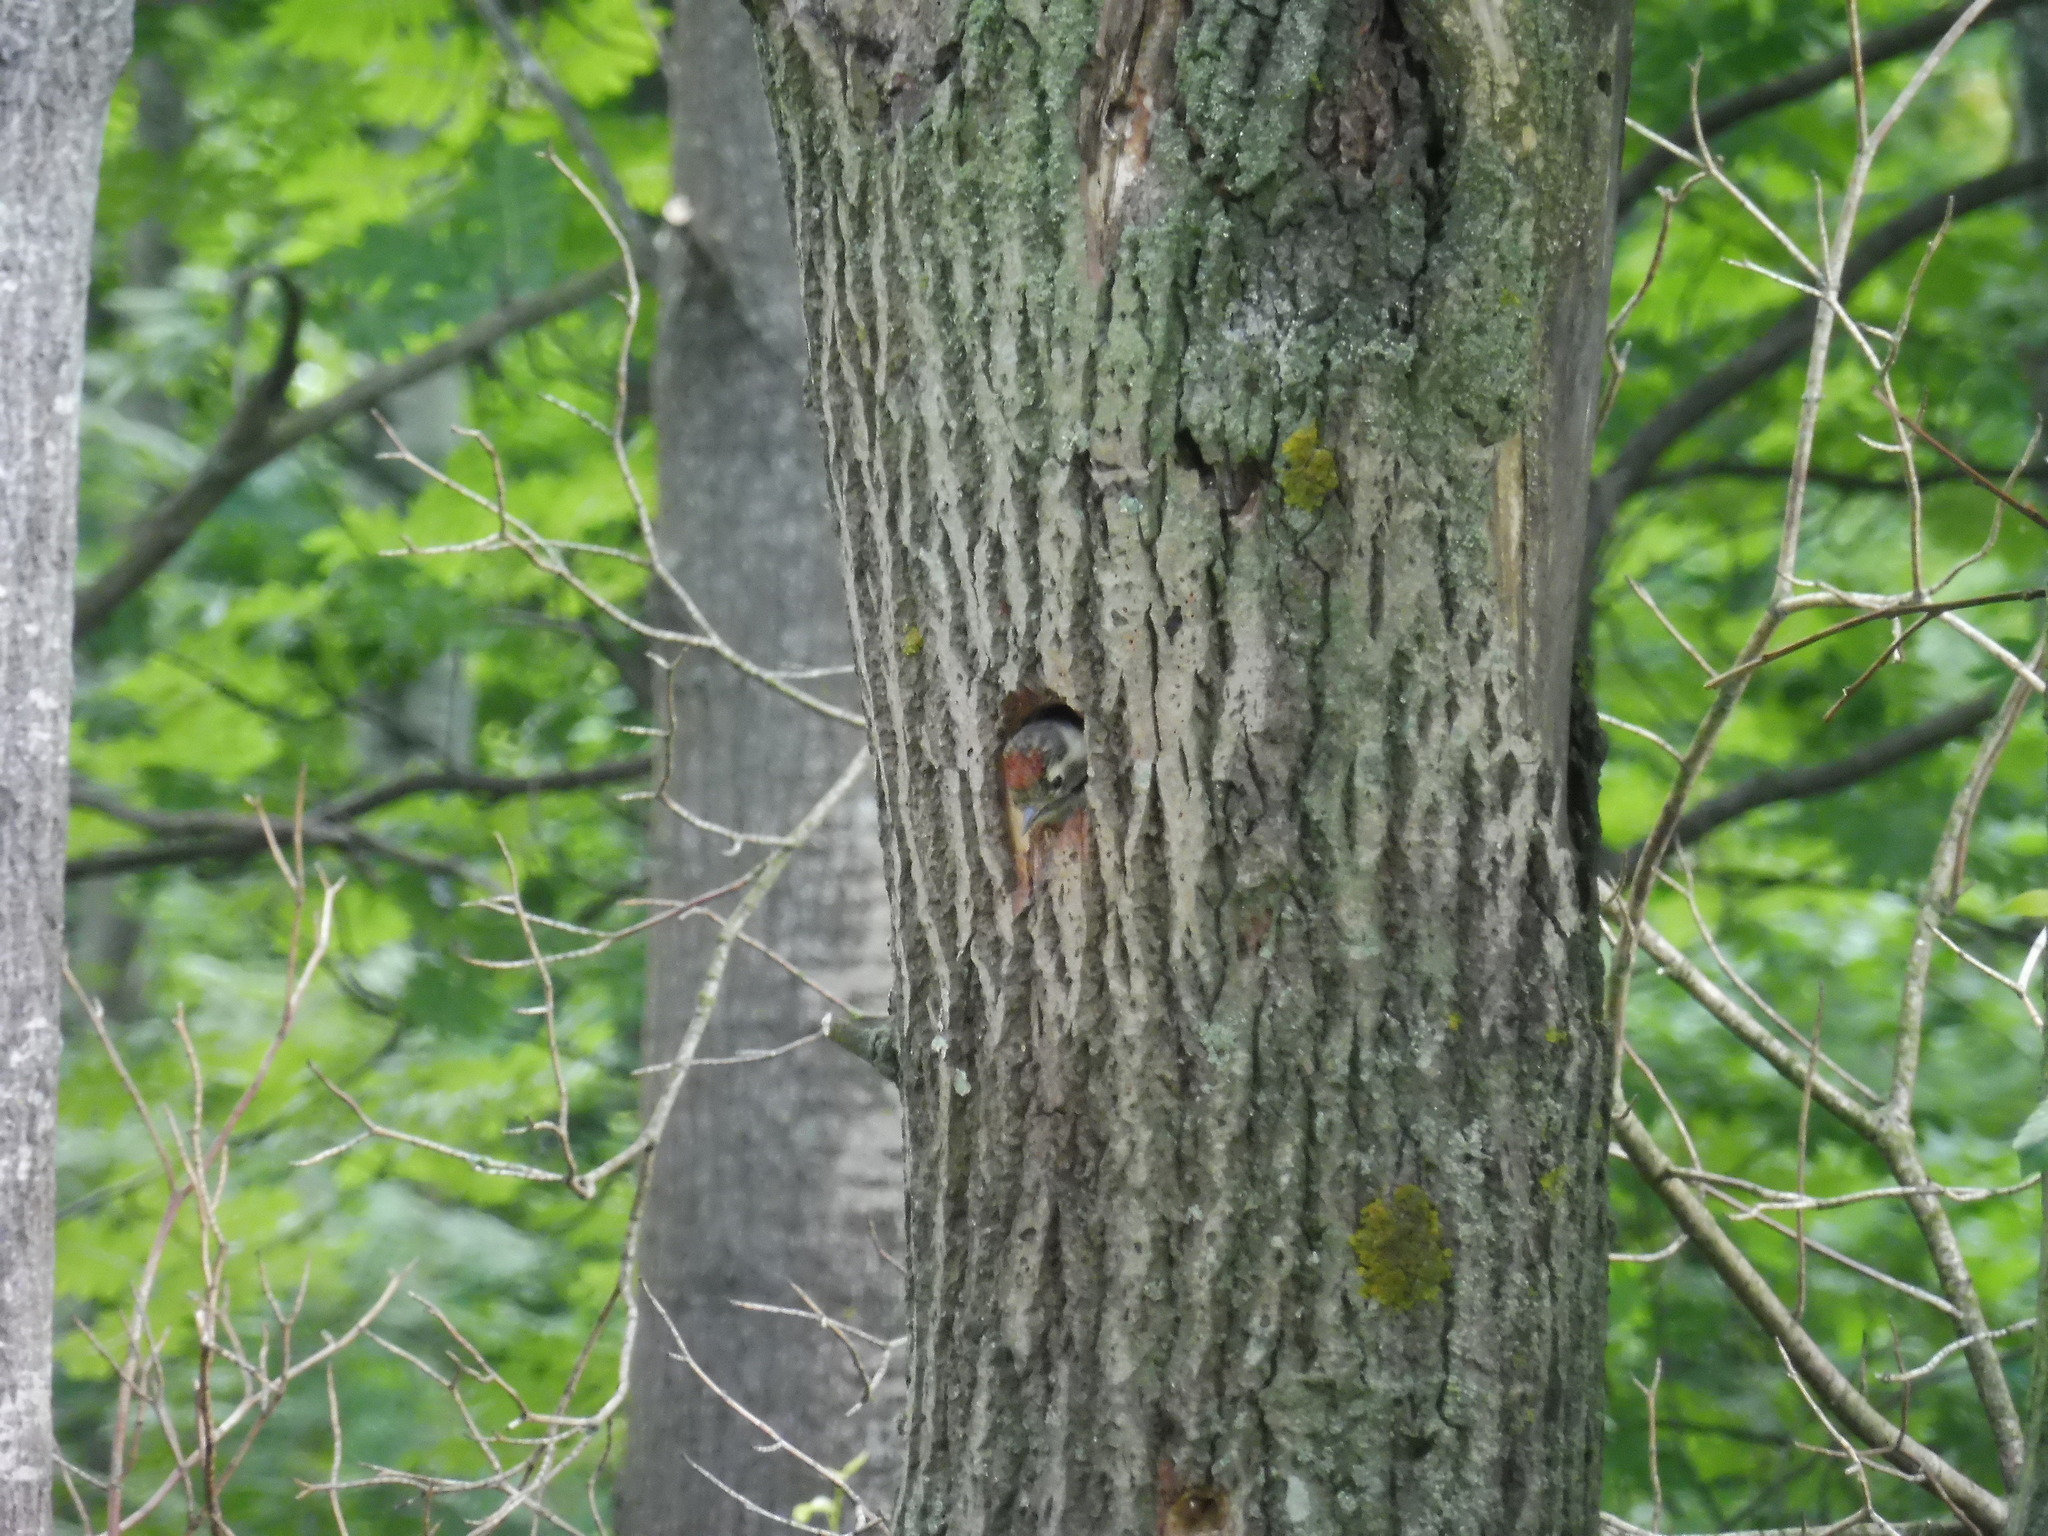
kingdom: Animalia
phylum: Chordata
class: Aves
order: Piciformes
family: Picidae
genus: Dryobates
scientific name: Dryobates minor
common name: Lesser spotted woodpecker
